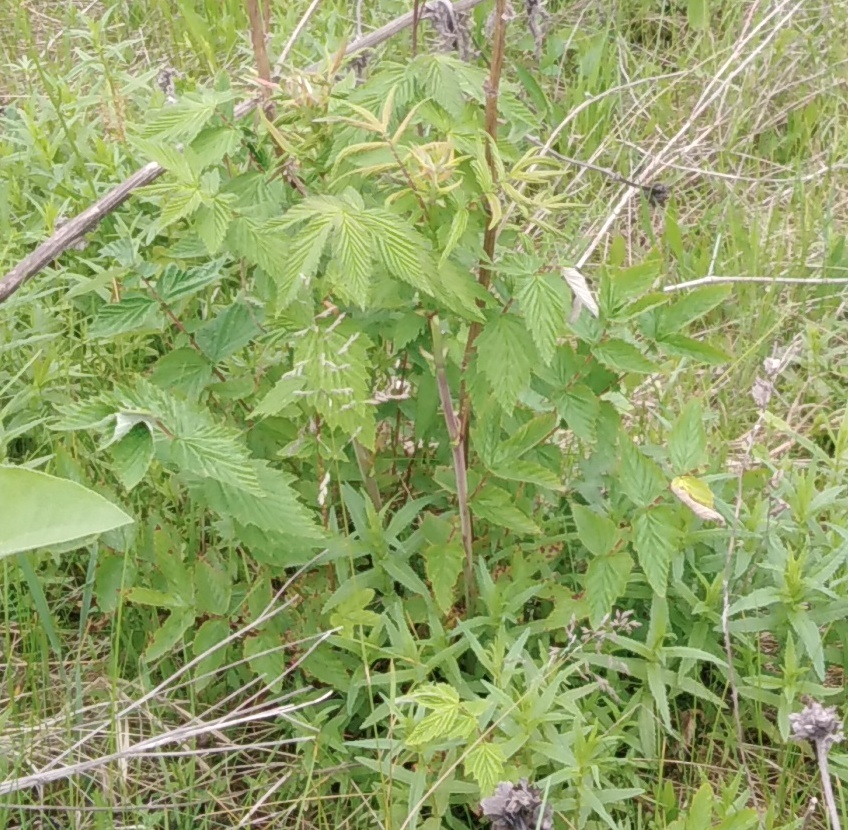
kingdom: Plantae
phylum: Tracheophyta
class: Magnoliopsida
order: Rosales
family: Rosaceae
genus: Filipendula
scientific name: Filipendula ulmaria
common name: Meadowsweet
